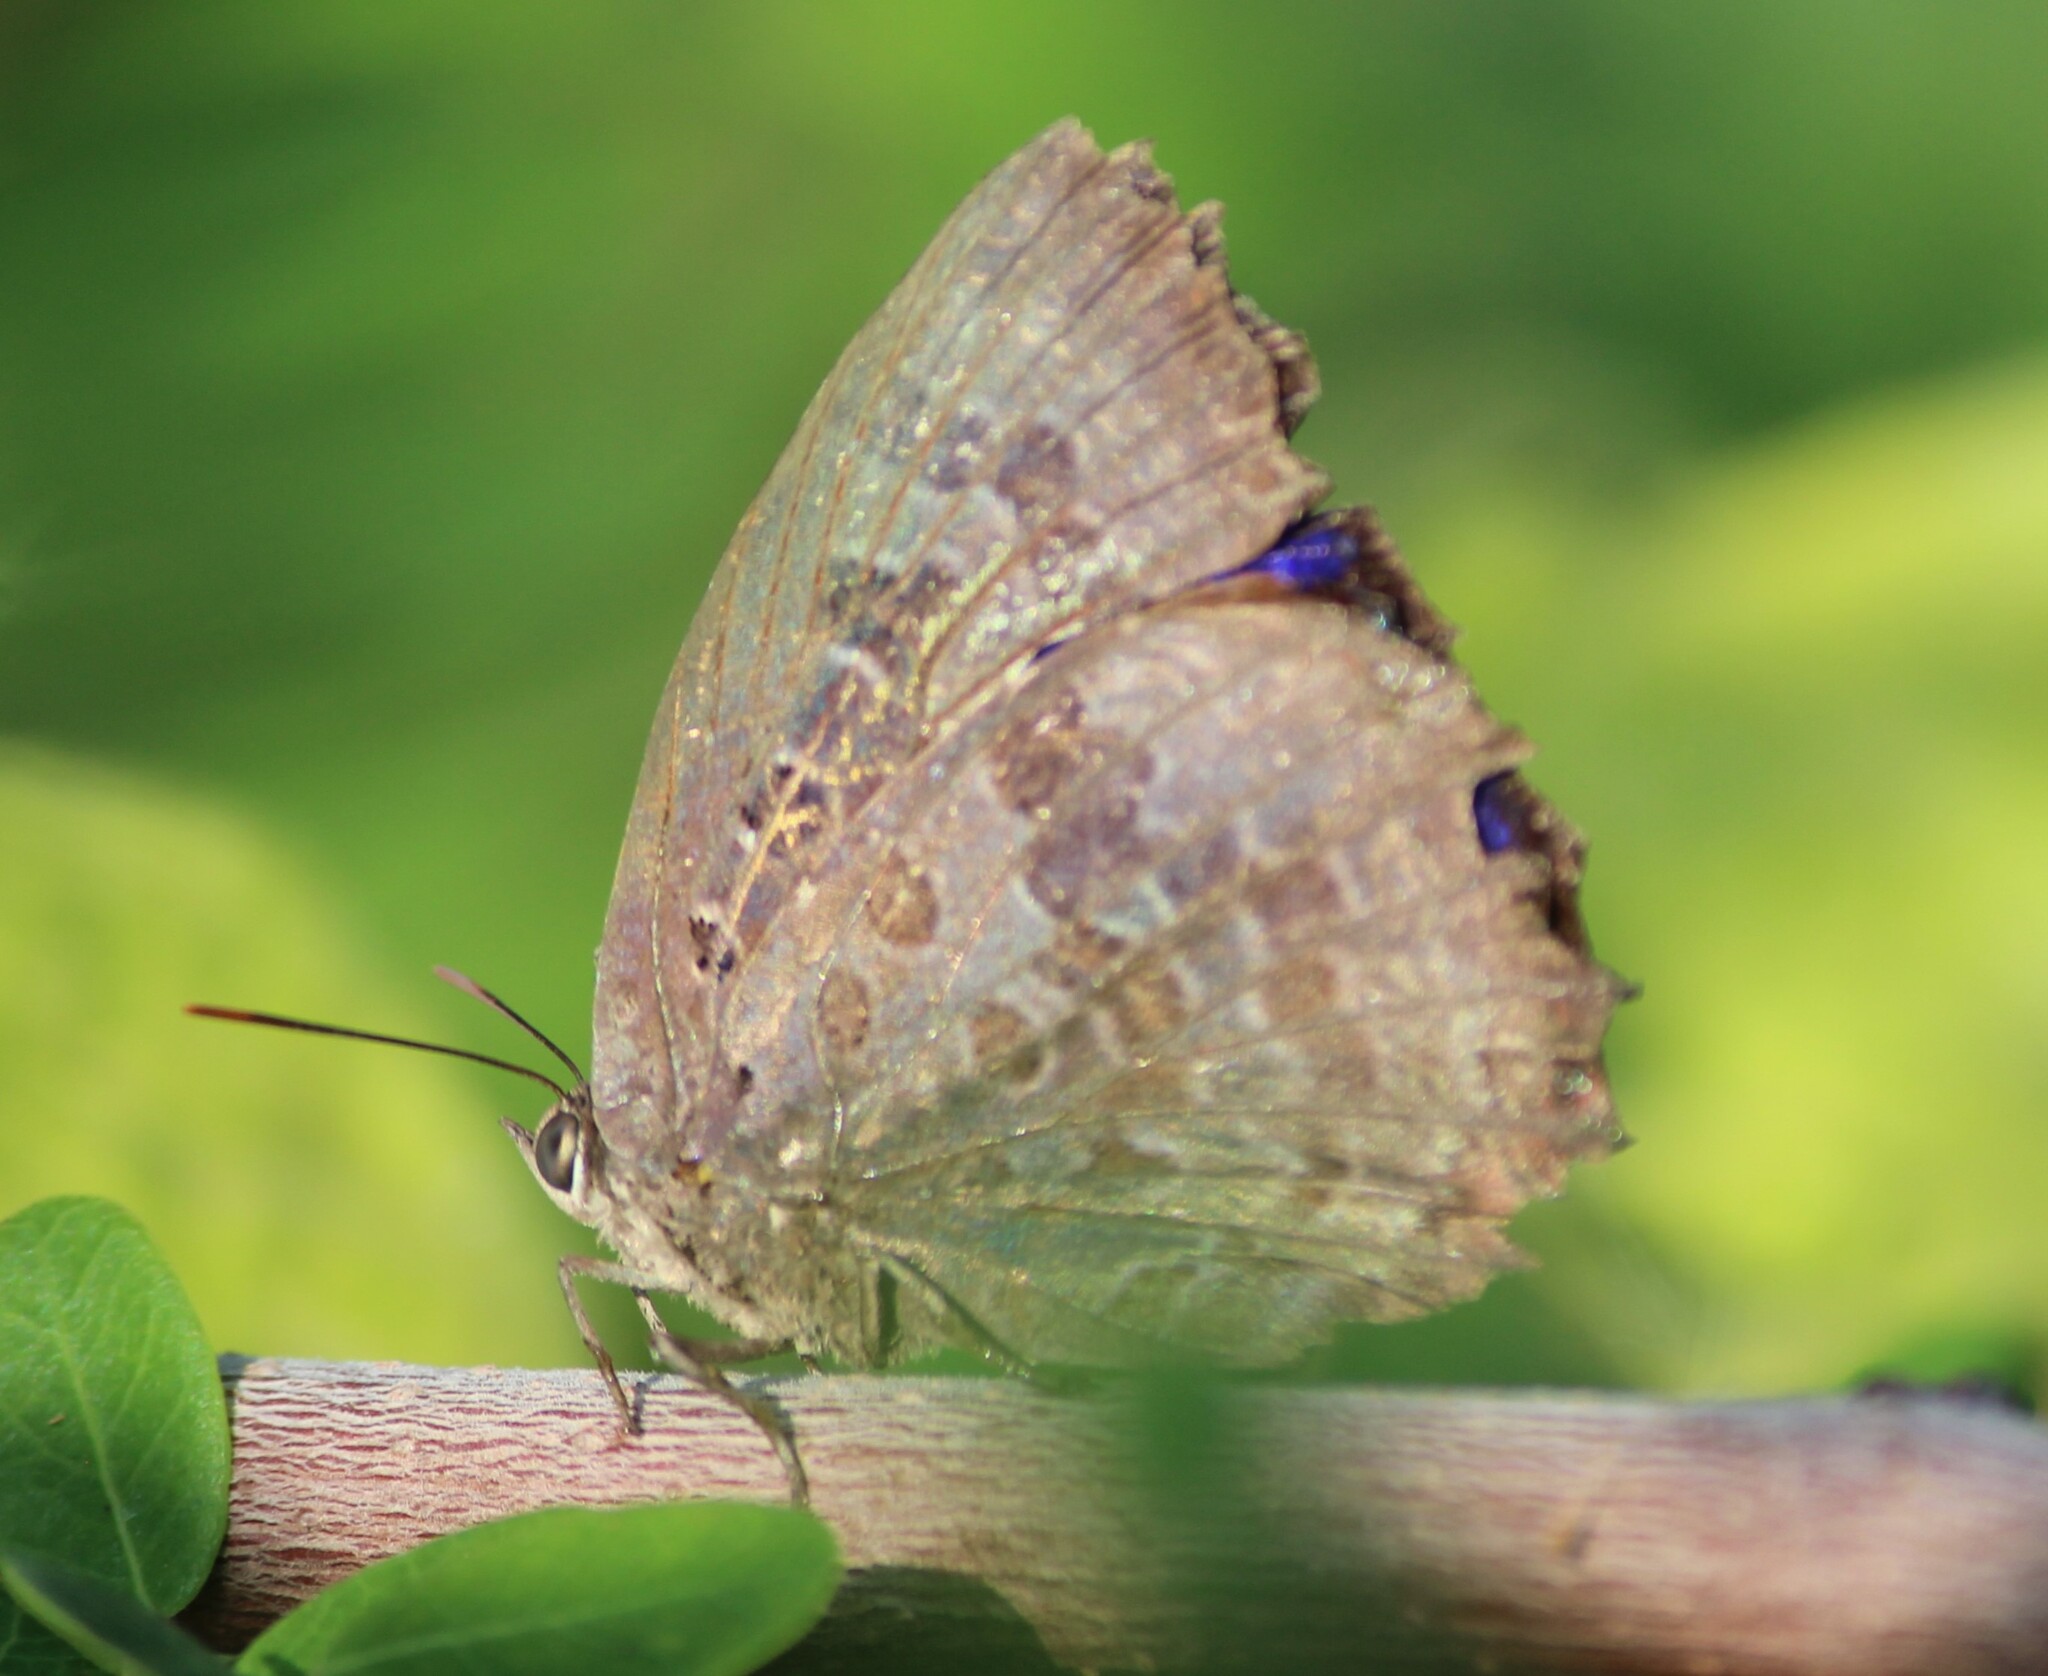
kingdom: Animalia
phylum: Arthropoda
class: Insecta
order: Lepidoptera
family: Lycaenidae
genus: Arhopala
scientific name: Arhopala amantes
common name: Large oakblue
